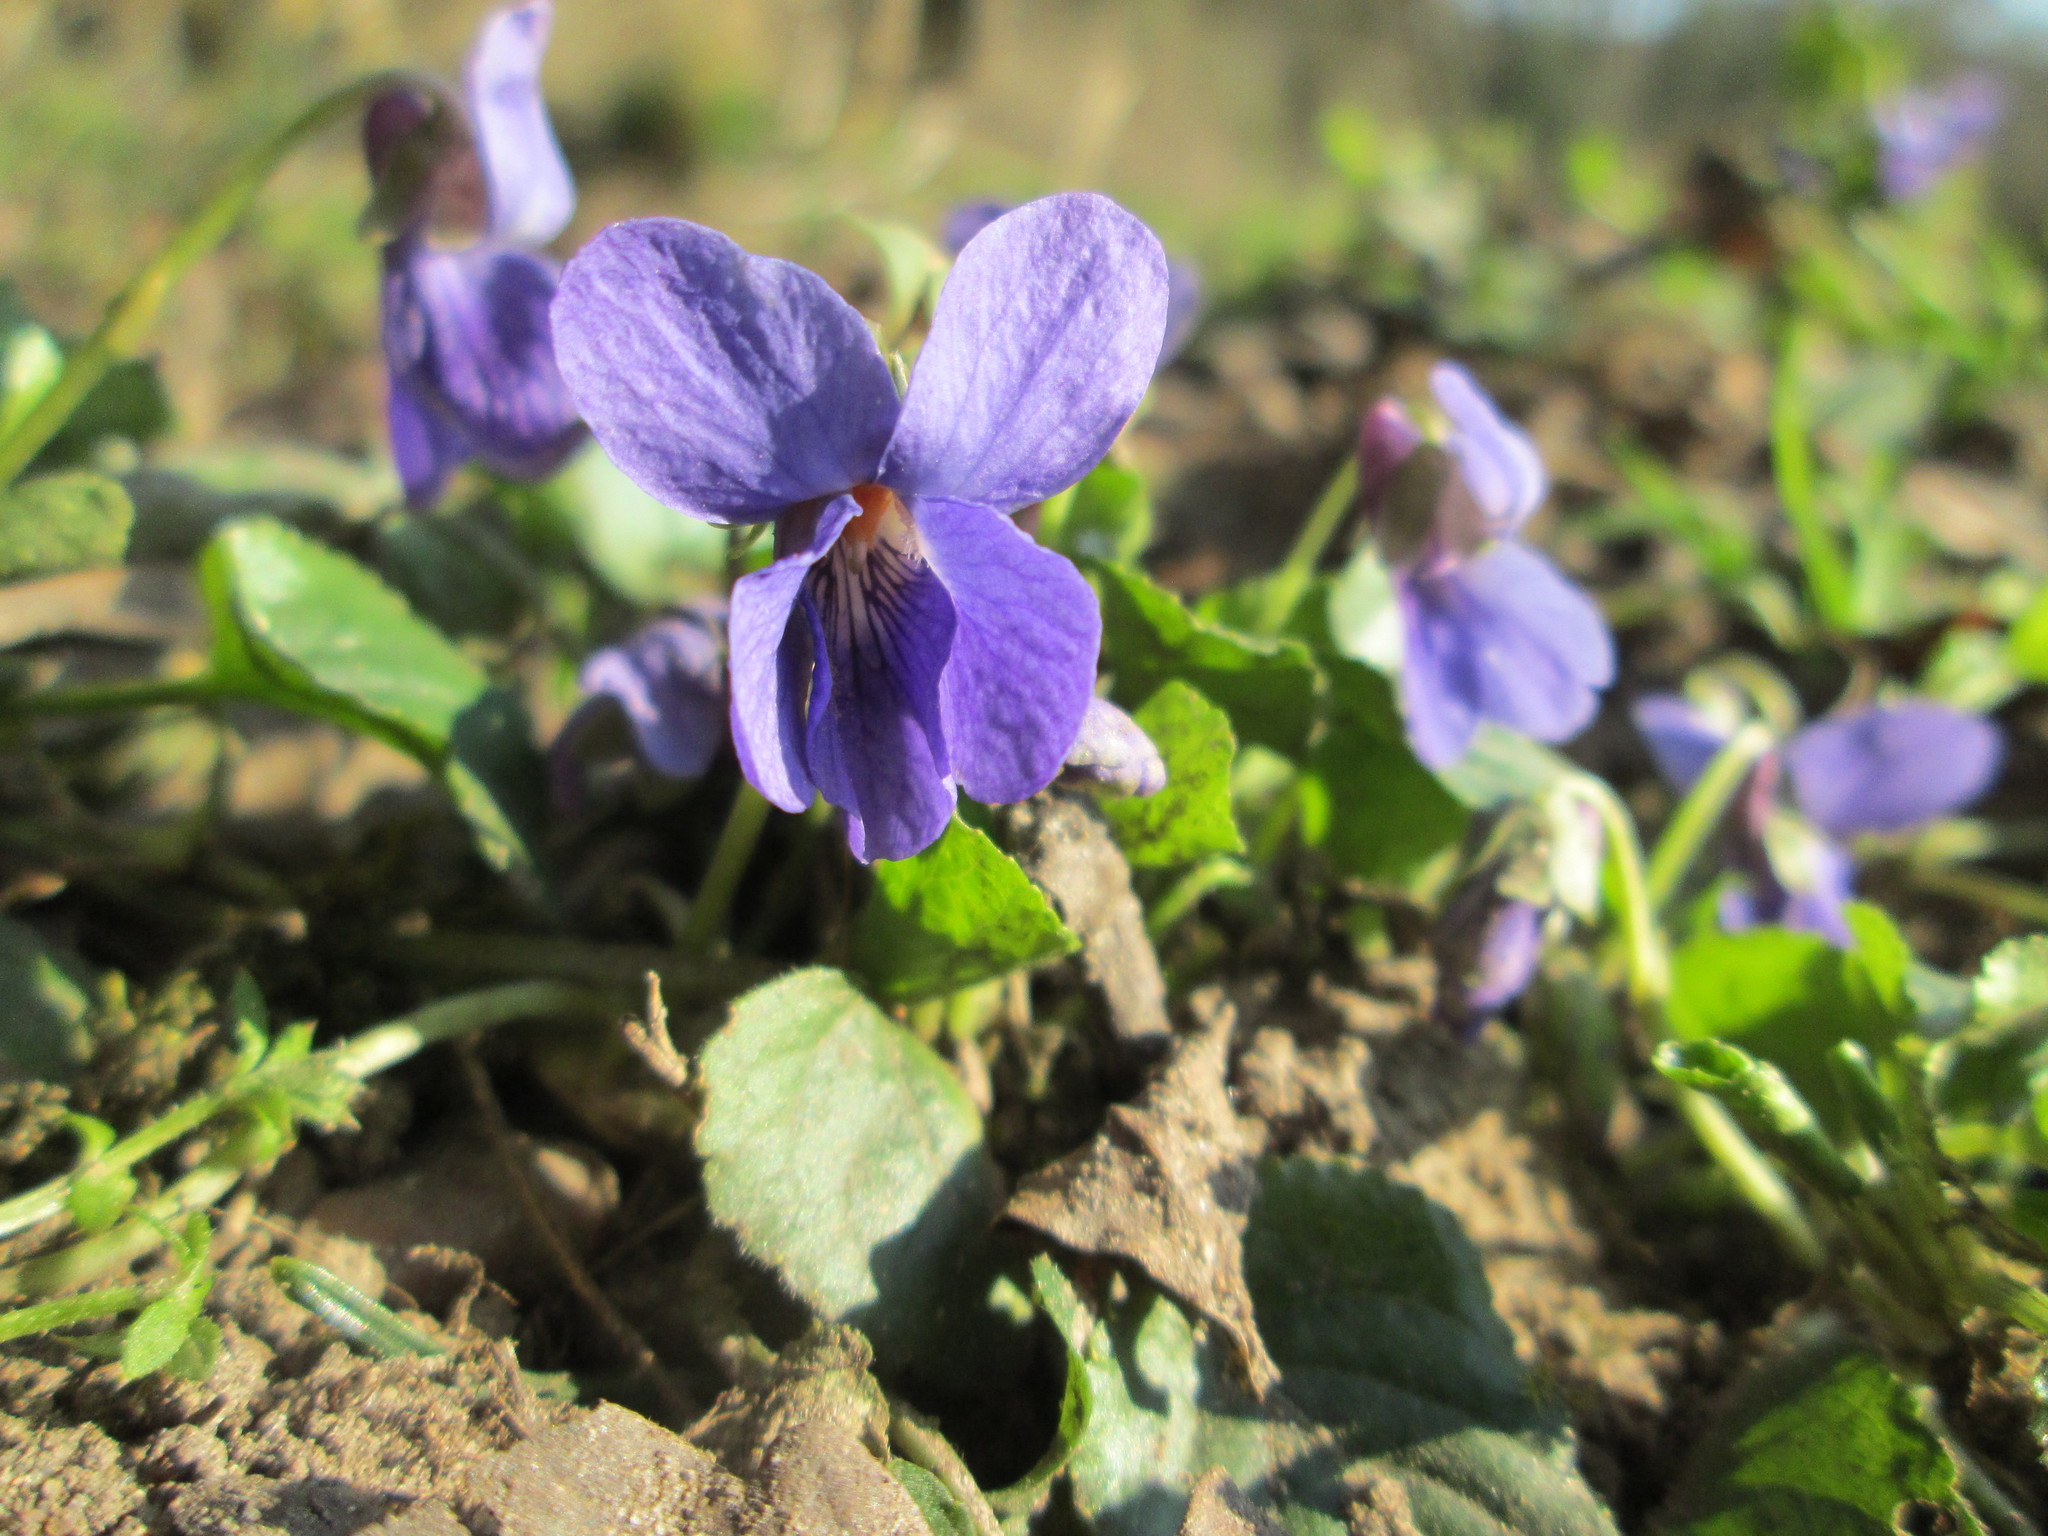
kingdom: Plantae
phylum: Tracheophyta
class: Magnoliopsida
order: Malpighiales
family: Violaceae
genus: Viola
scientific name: Viola odorata
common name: Sweet violet
